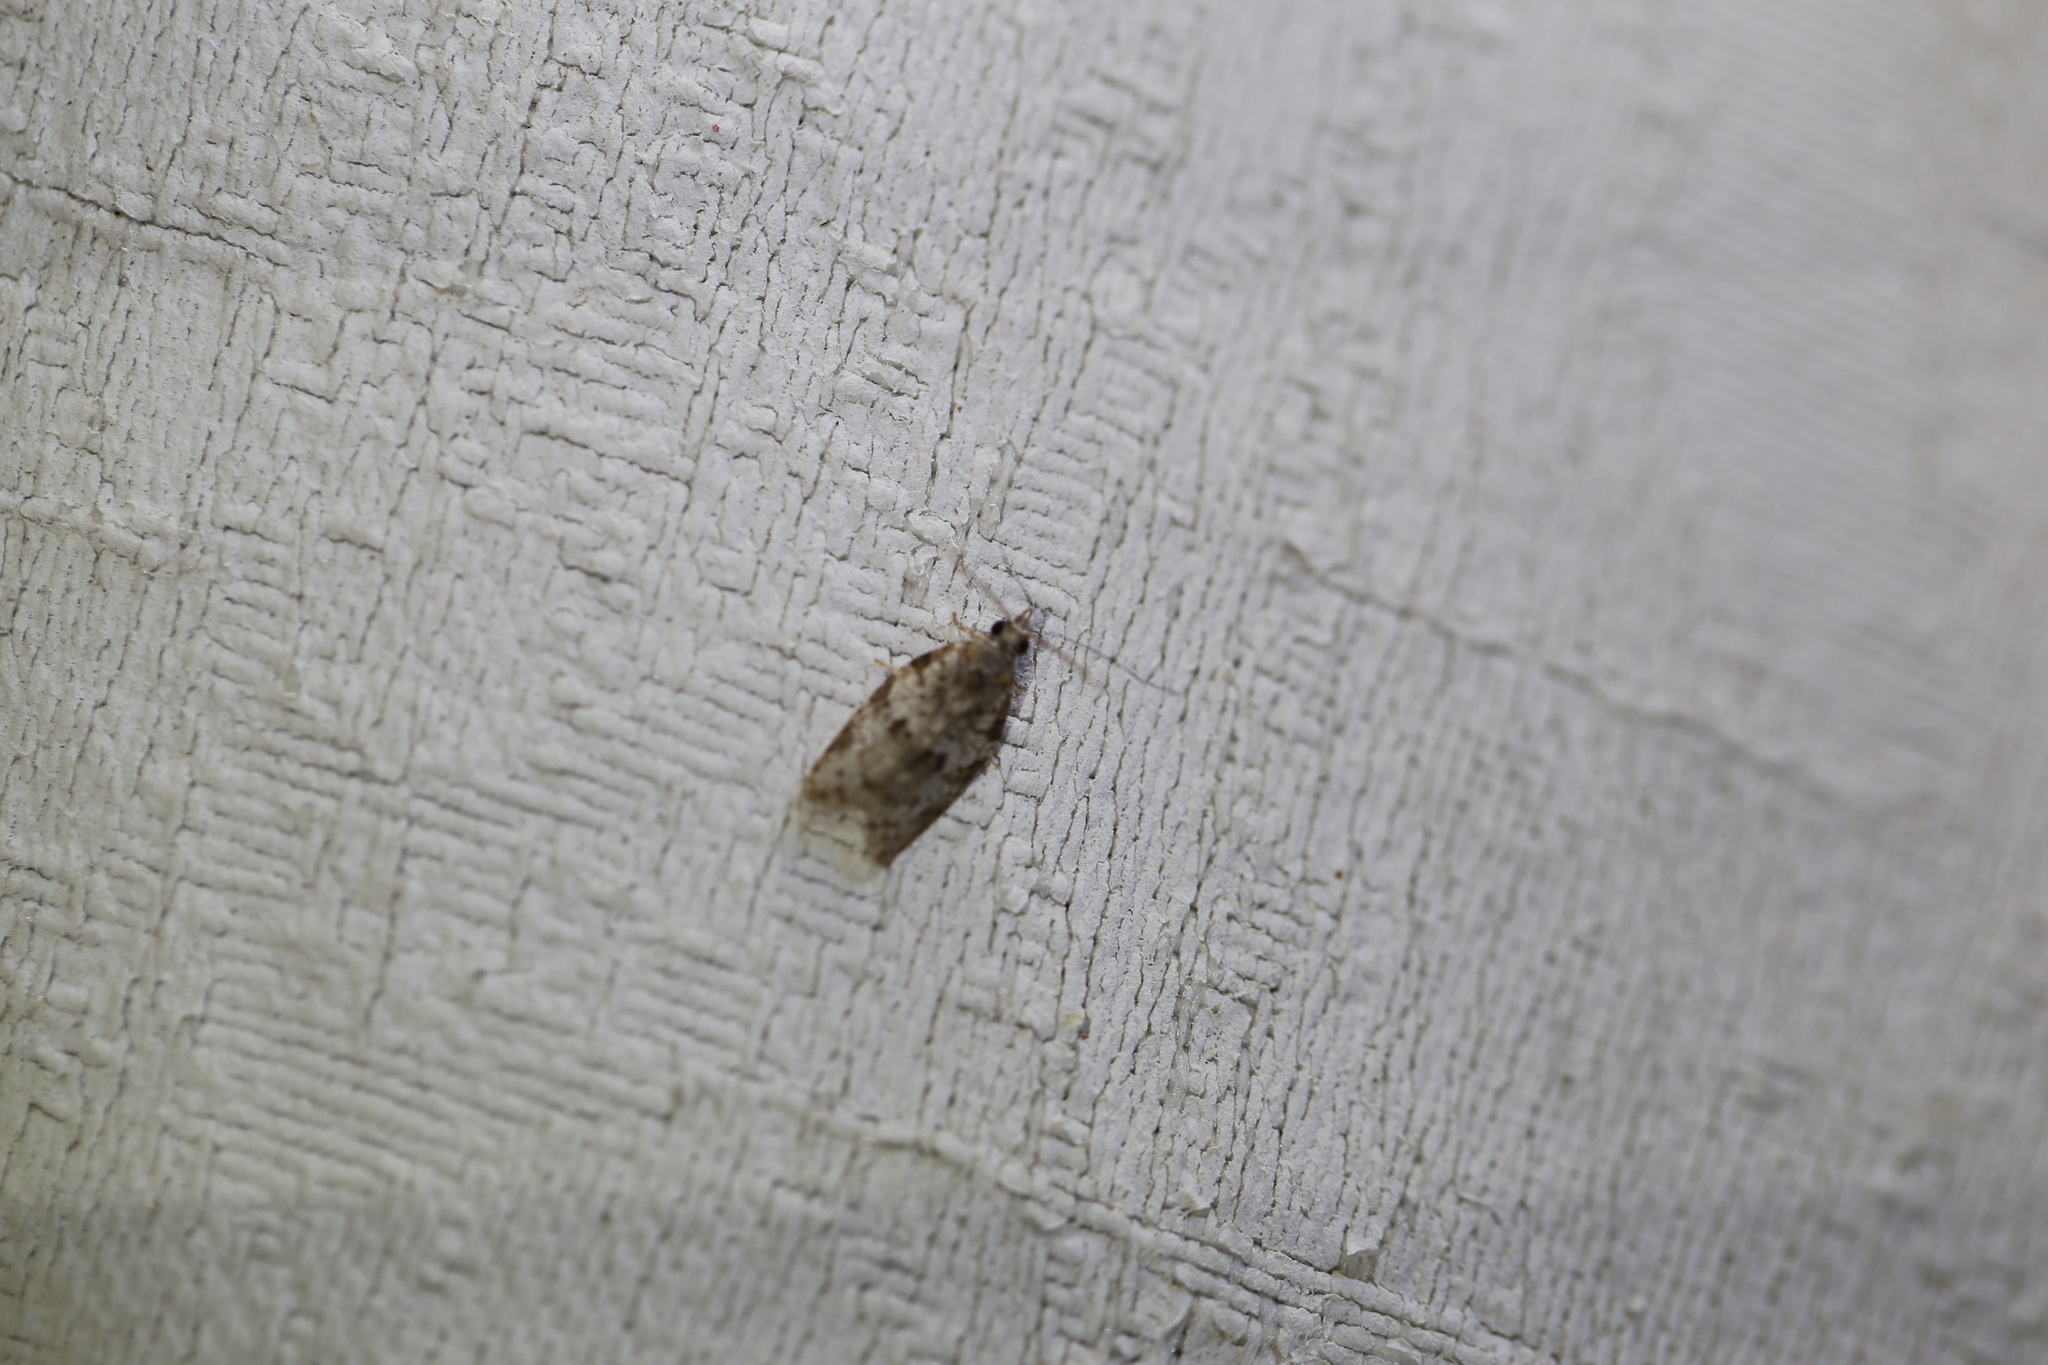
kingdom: Animalia
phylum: Arthropoda
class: Insecta
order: Lepidoptera
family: Tortricidae
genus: Isotenes
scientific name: Isotenes miserana
